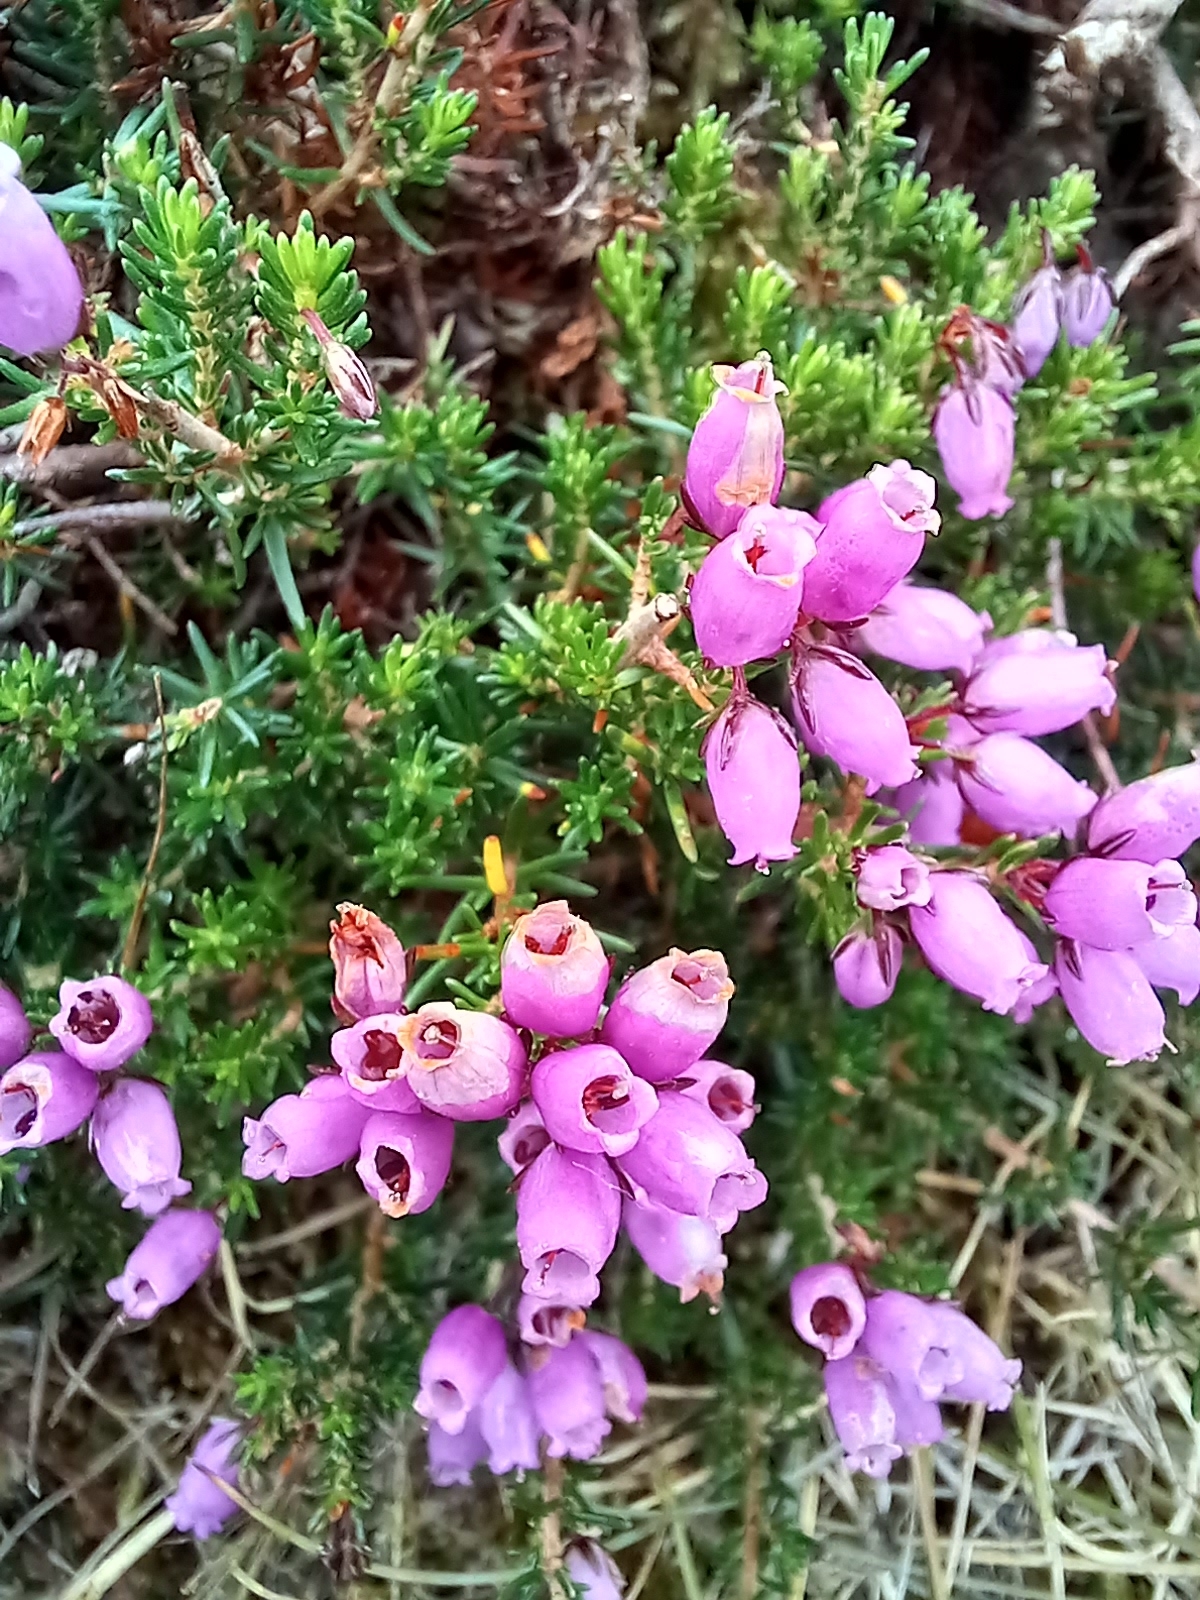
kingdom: Plantae
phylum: Tracheophyta
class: Magnoliopsida
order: Ericales
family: Ericaceae
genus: Erica
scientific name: Erica cinerea
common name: Bell heather
